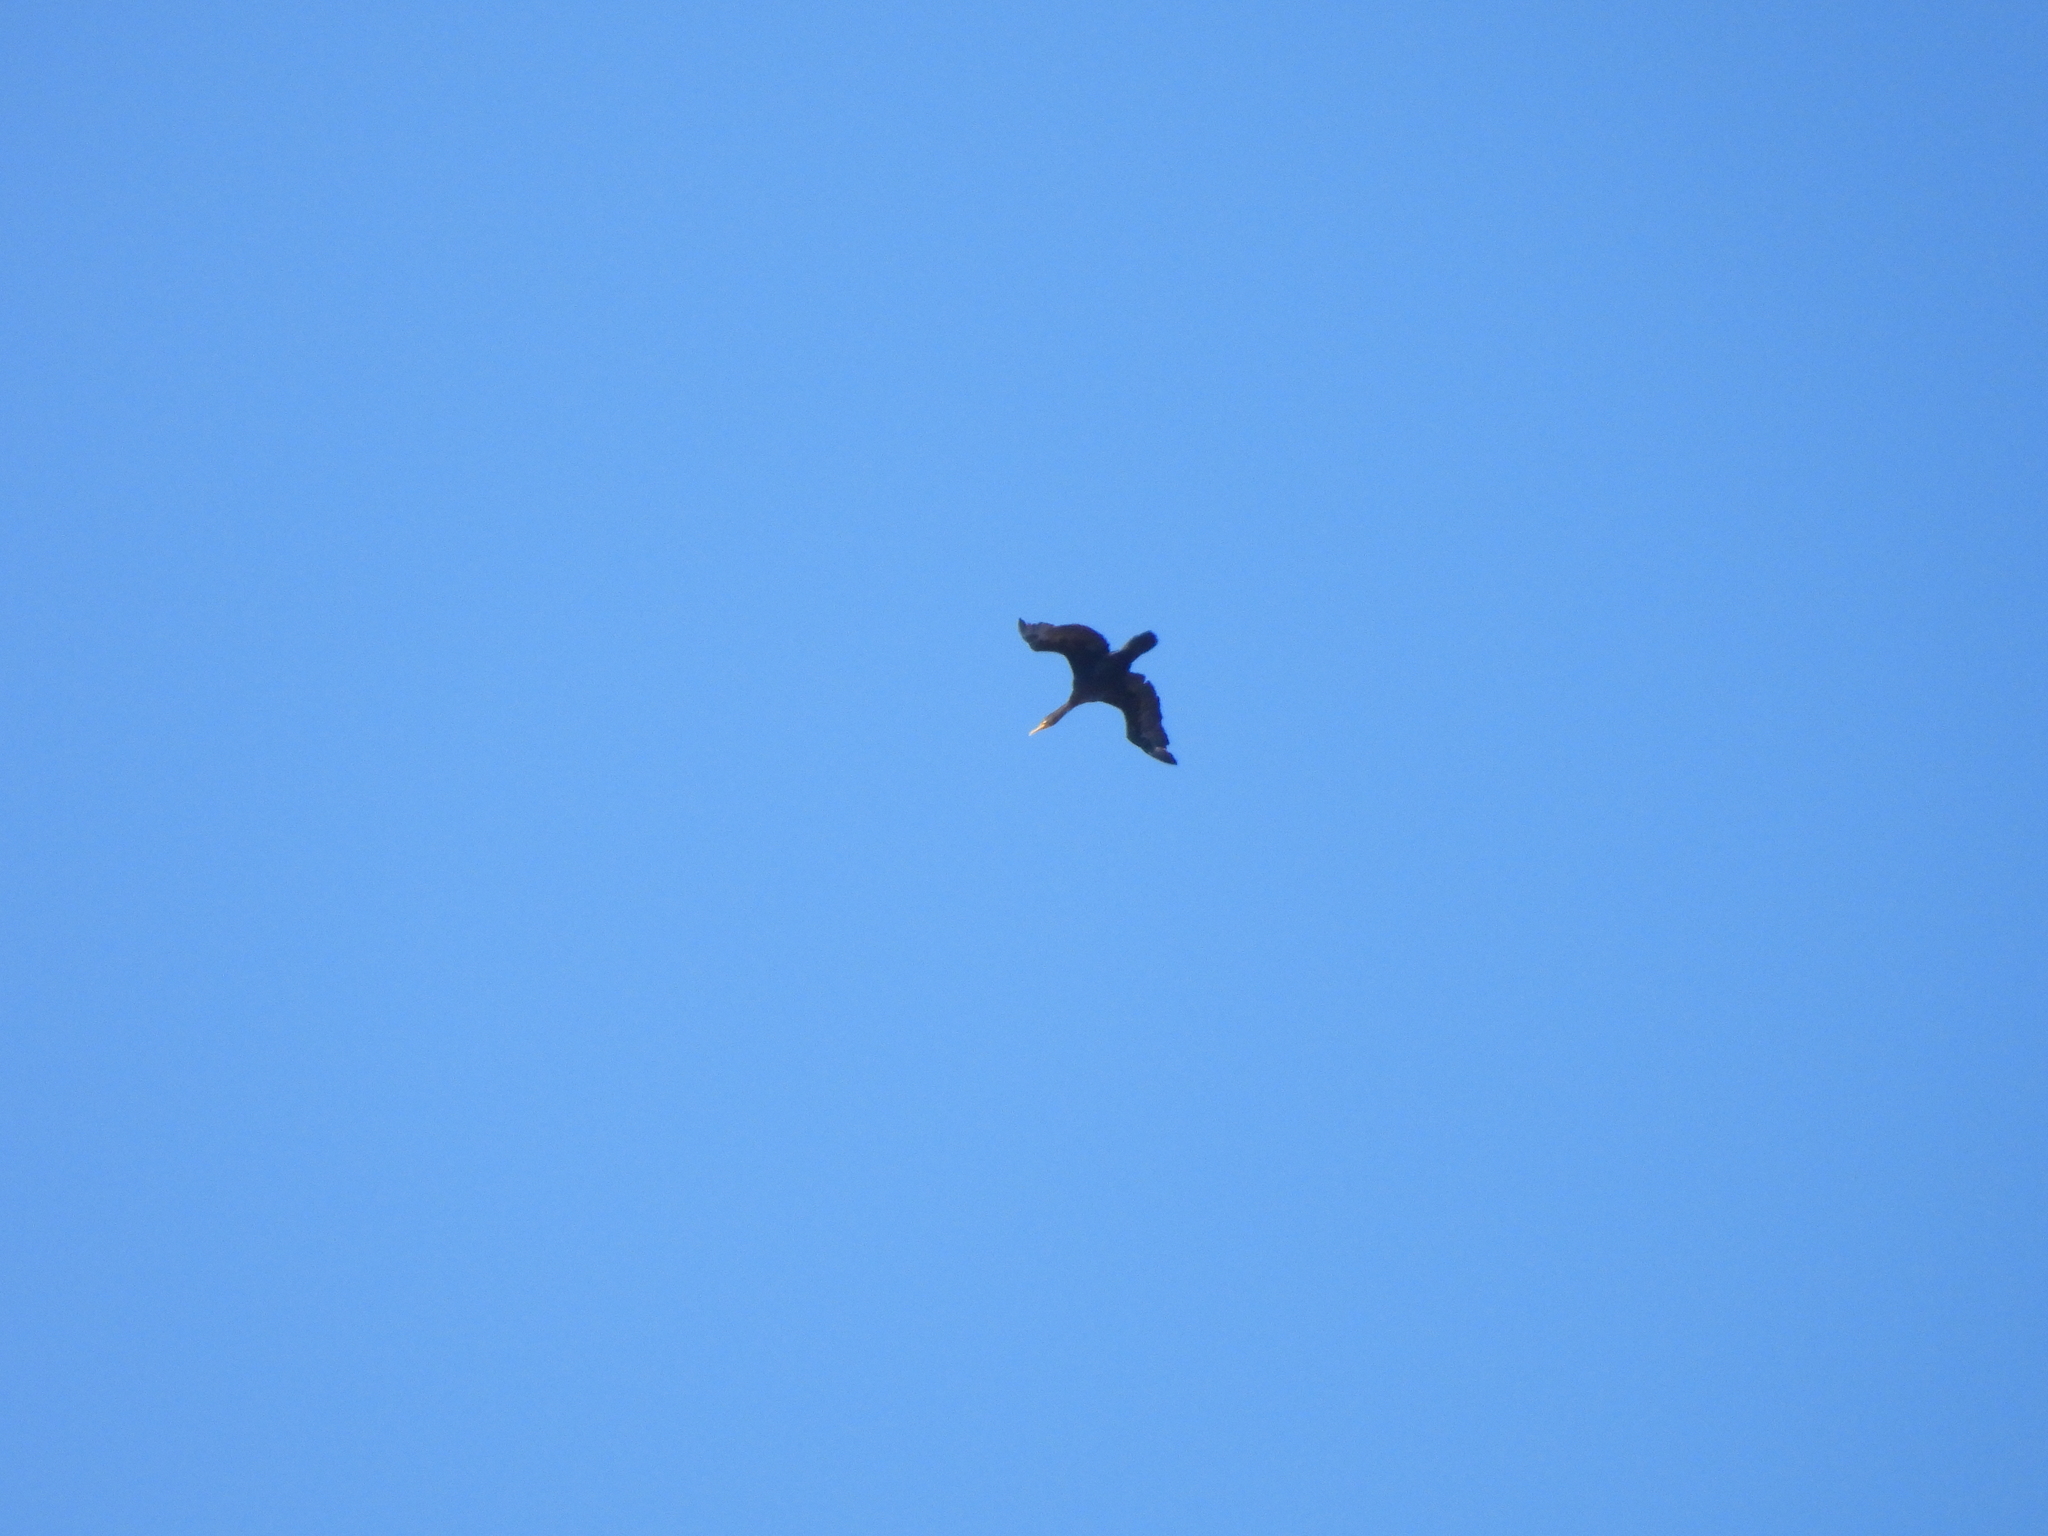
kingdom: Animalia
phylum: Chordata
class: Aves
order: Suliformes
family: Phalacrocoracidae
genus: Phalacrocorax
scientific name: Phalacrocorax auritus
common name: Double-crested cormorant
